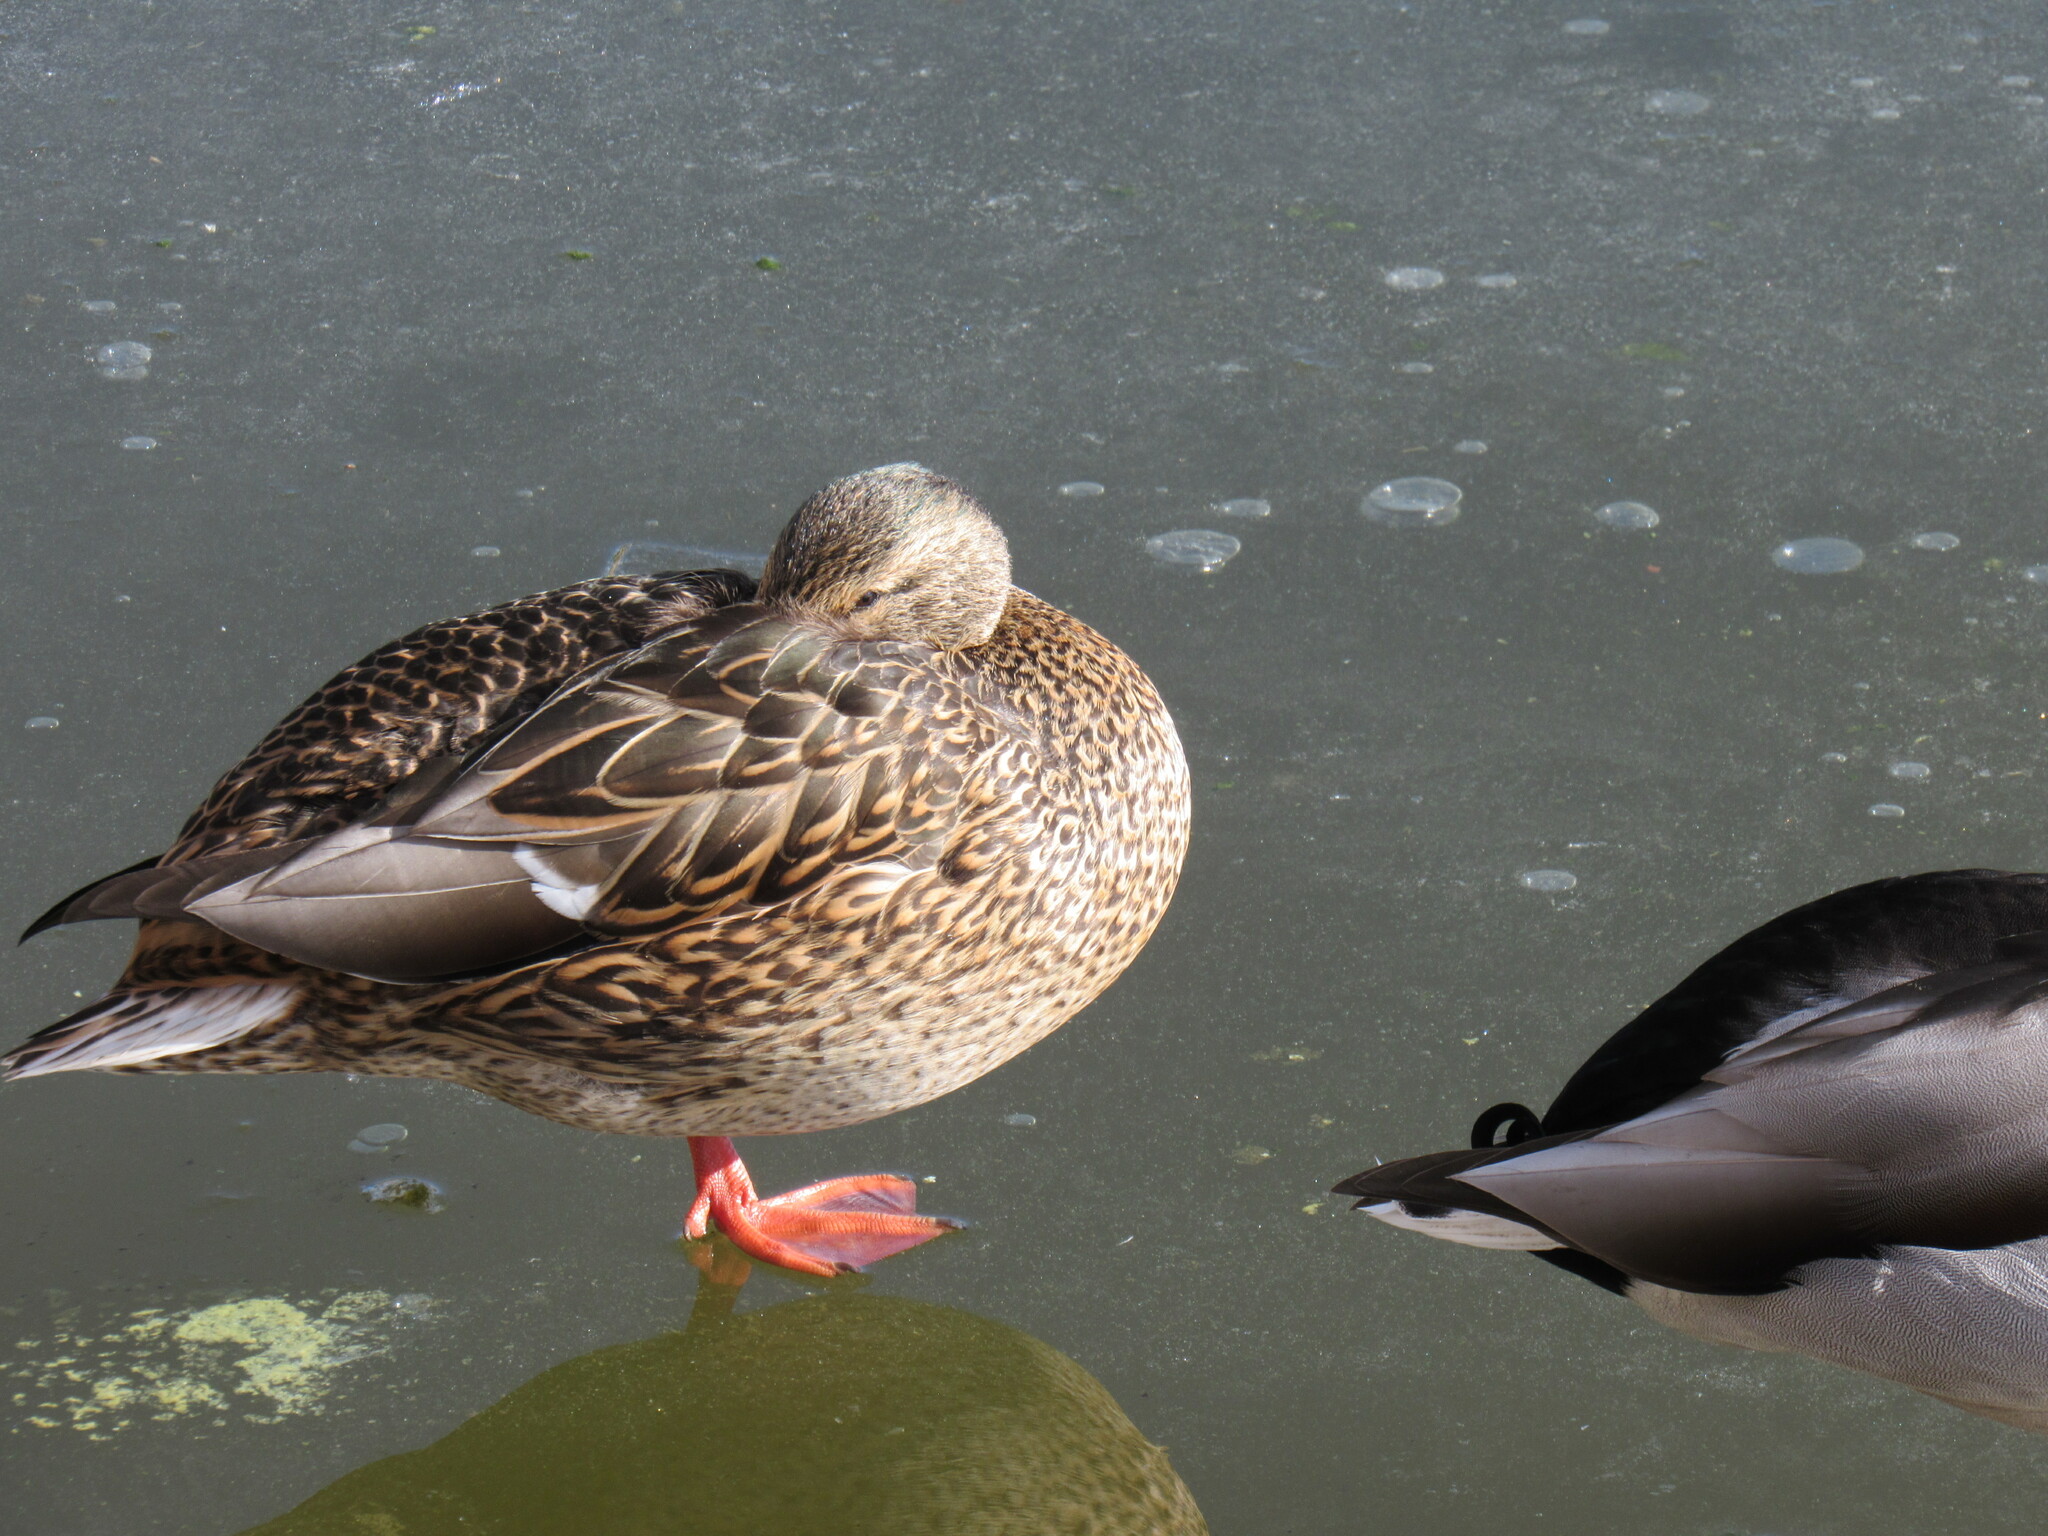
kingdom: Animalia
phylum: Chordata
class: Aves
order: Anseriformes
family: Anatidae
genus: Anas
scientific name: Anas platyrhynchos
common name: Mallard
